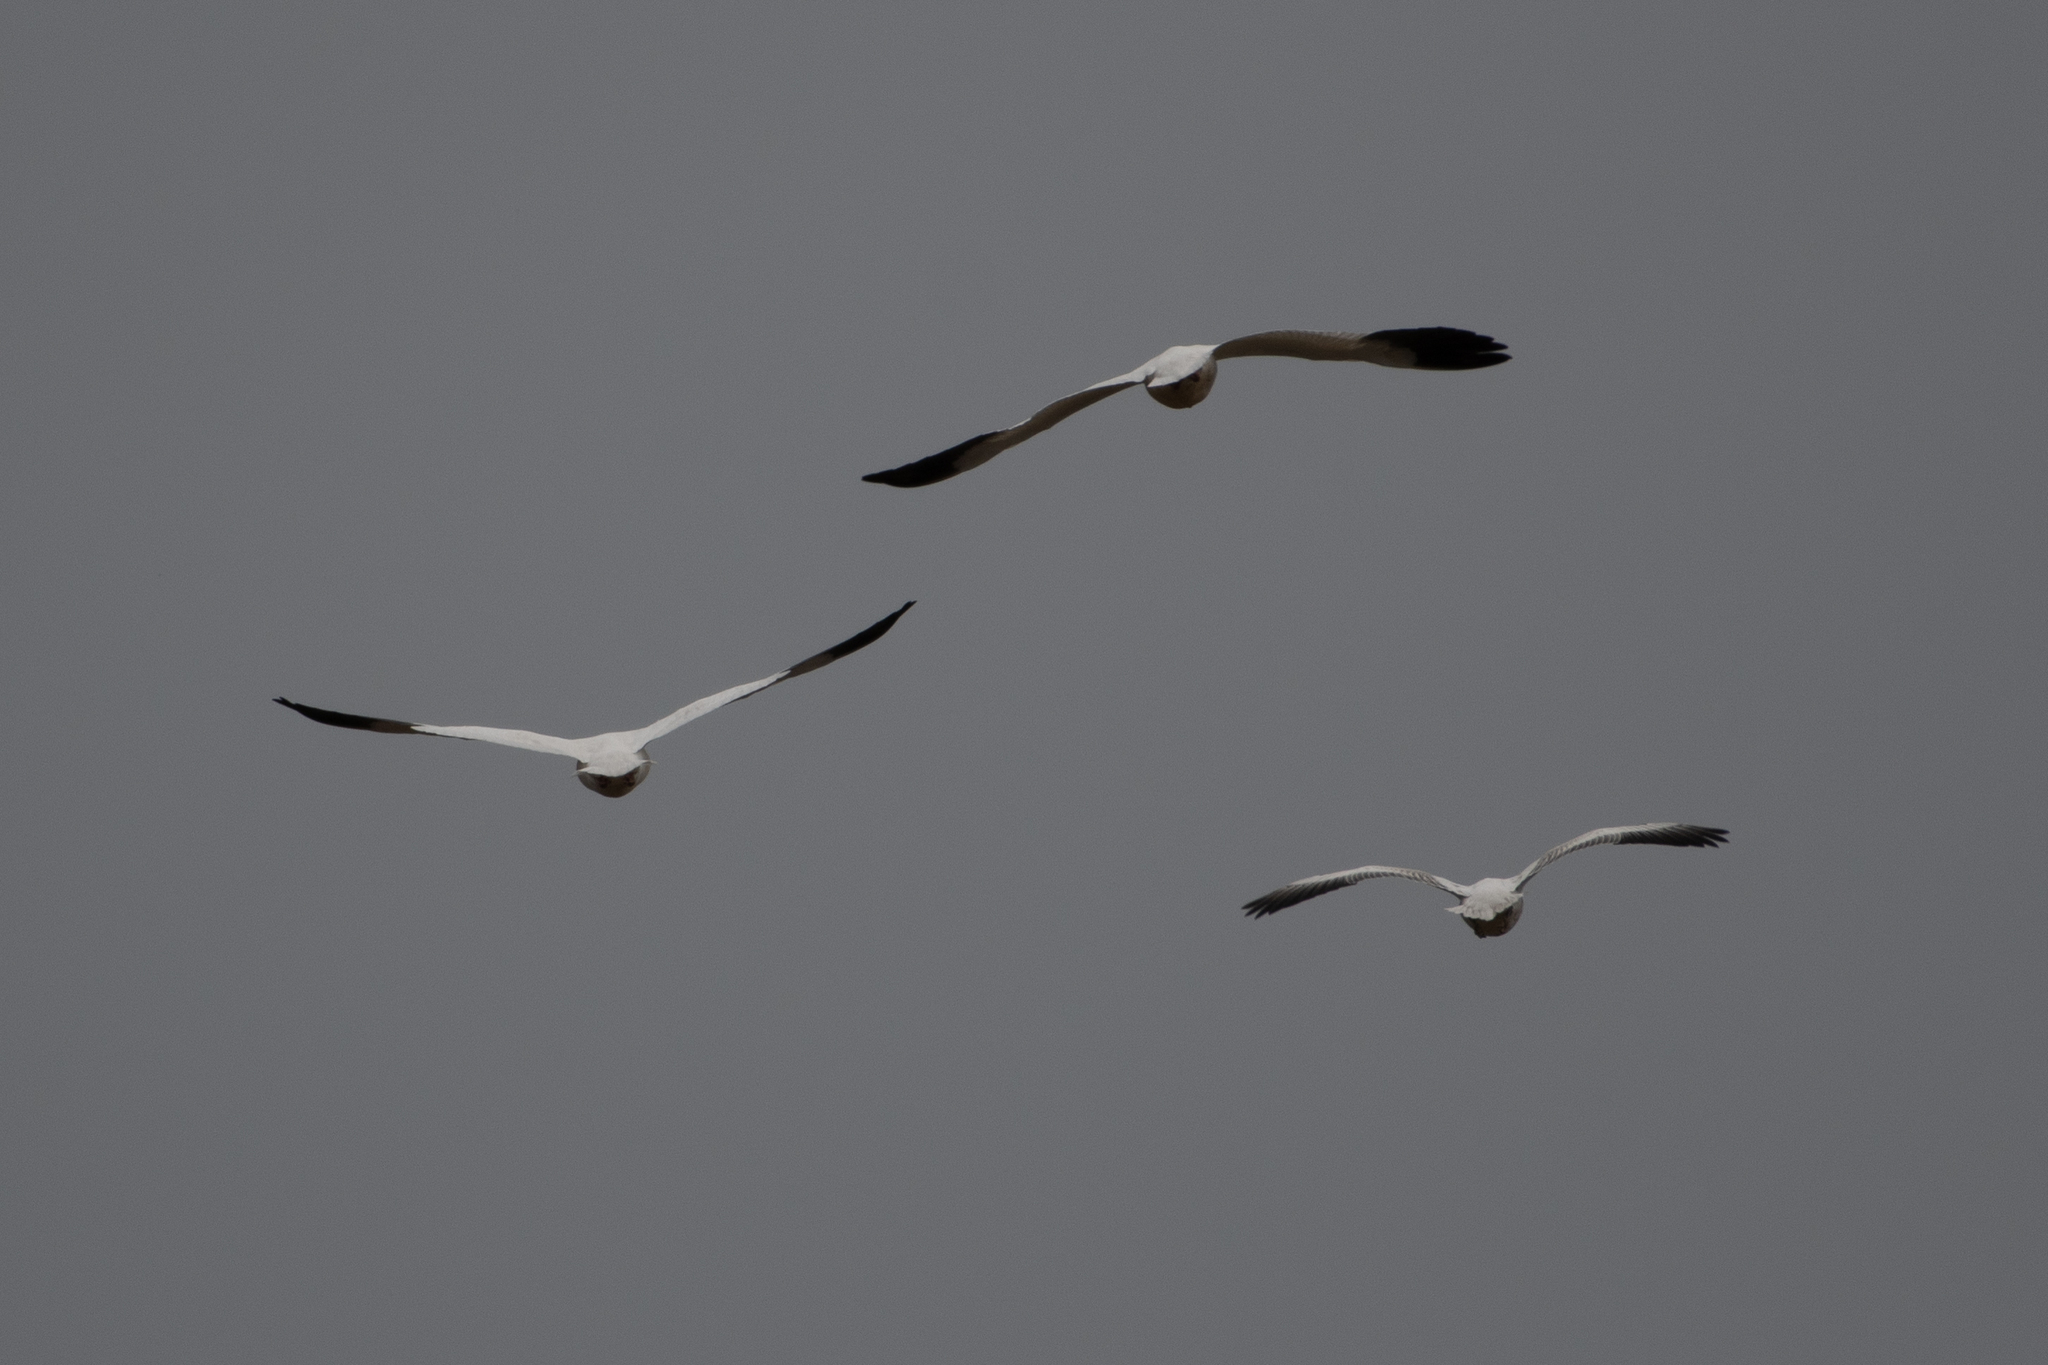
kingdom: Animalia
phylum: Chordata
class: Aves
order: Anseriformes
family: Anatidae
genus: Anser
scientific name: Anser caerulescens
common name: Snow goose
